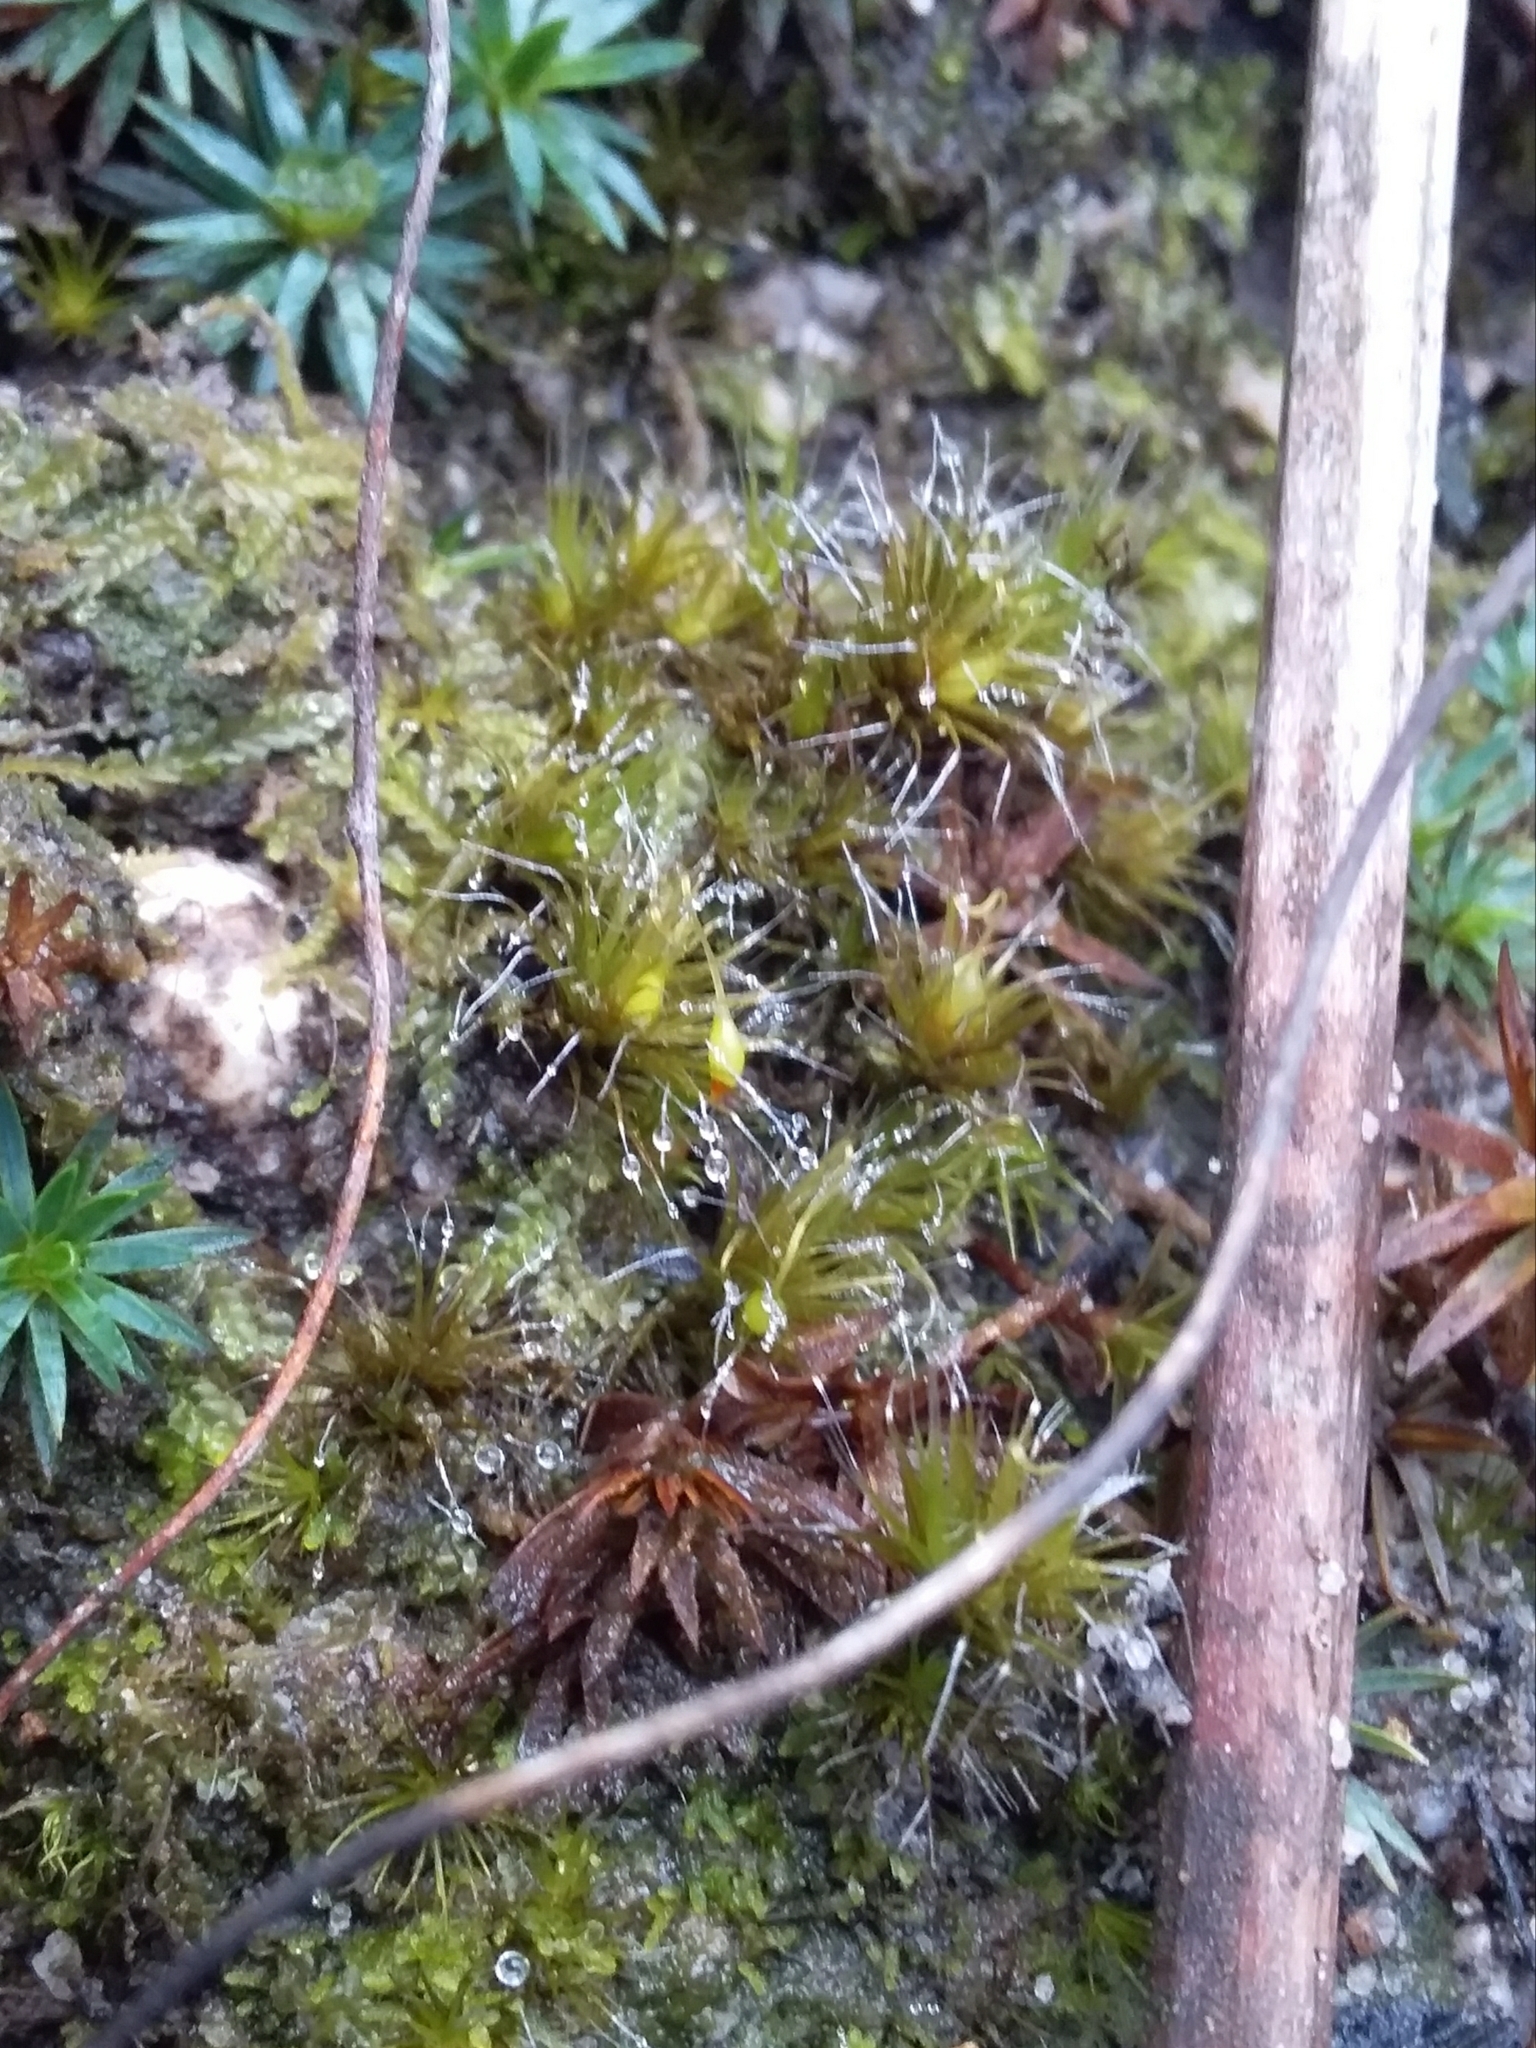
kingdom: Plantae
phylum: Bryophyta
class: Bryopsida
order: Dicranales
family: Leucobryaceae
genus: Campylopus
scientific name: Campylopus introflexus
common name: Heath star moss
